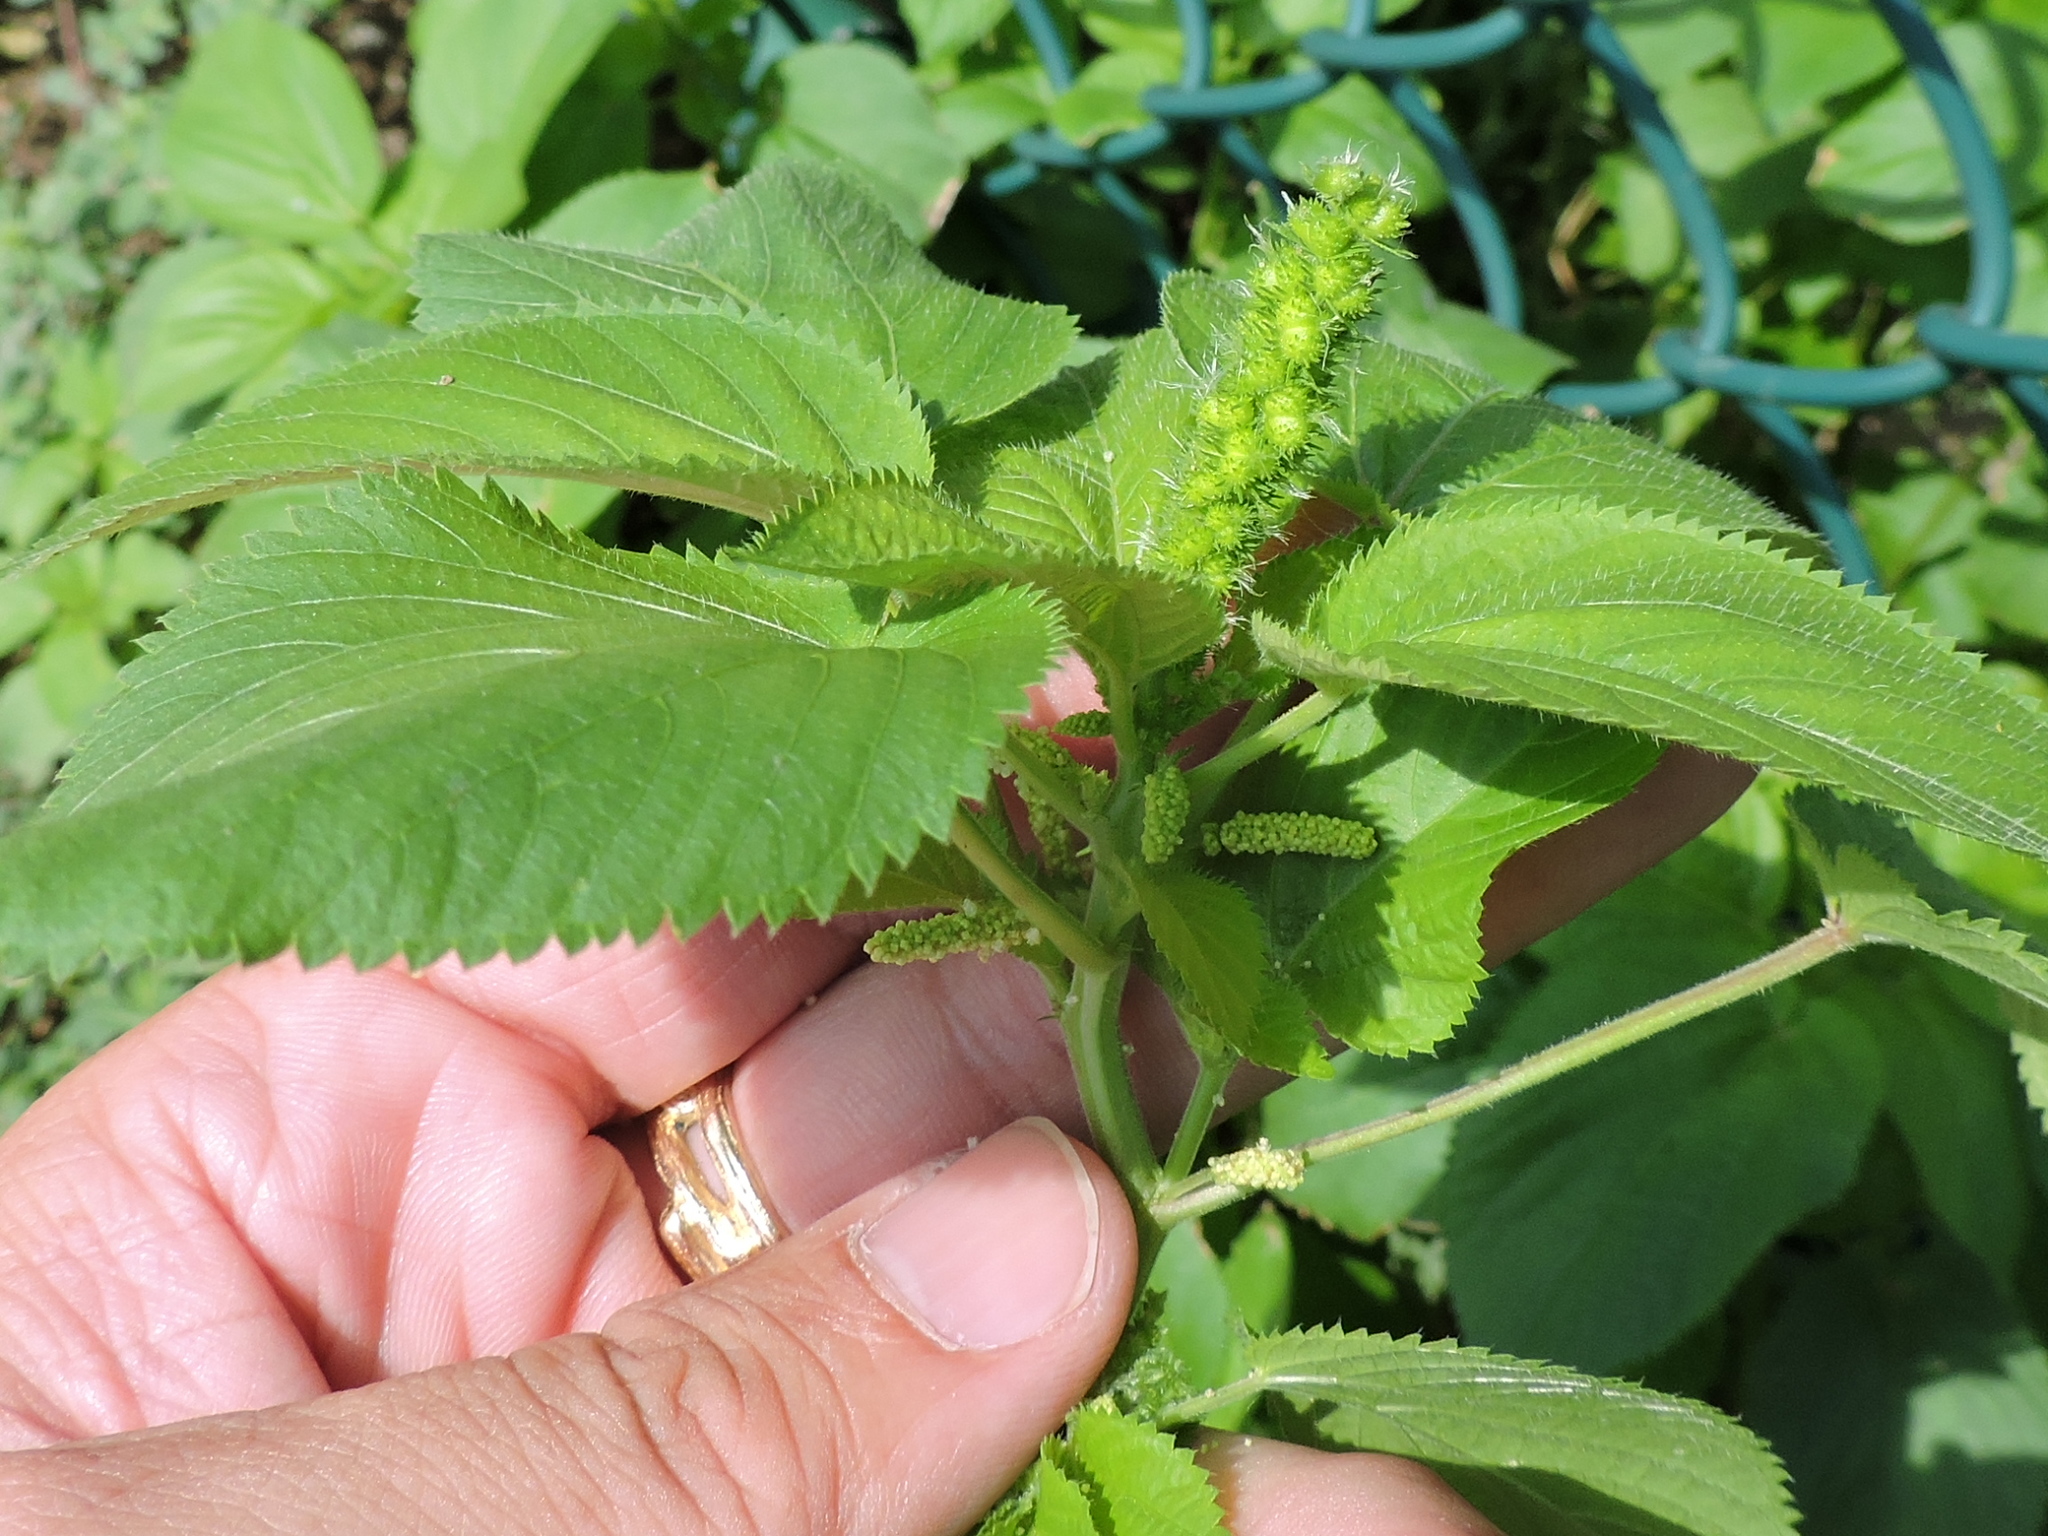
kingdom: Plantae
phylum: Tracheophyta
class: Magnoliopsida
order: Malpighiales
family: Euphorbiaceae
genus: Acalypha
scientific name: Acalypha ostryifolia
